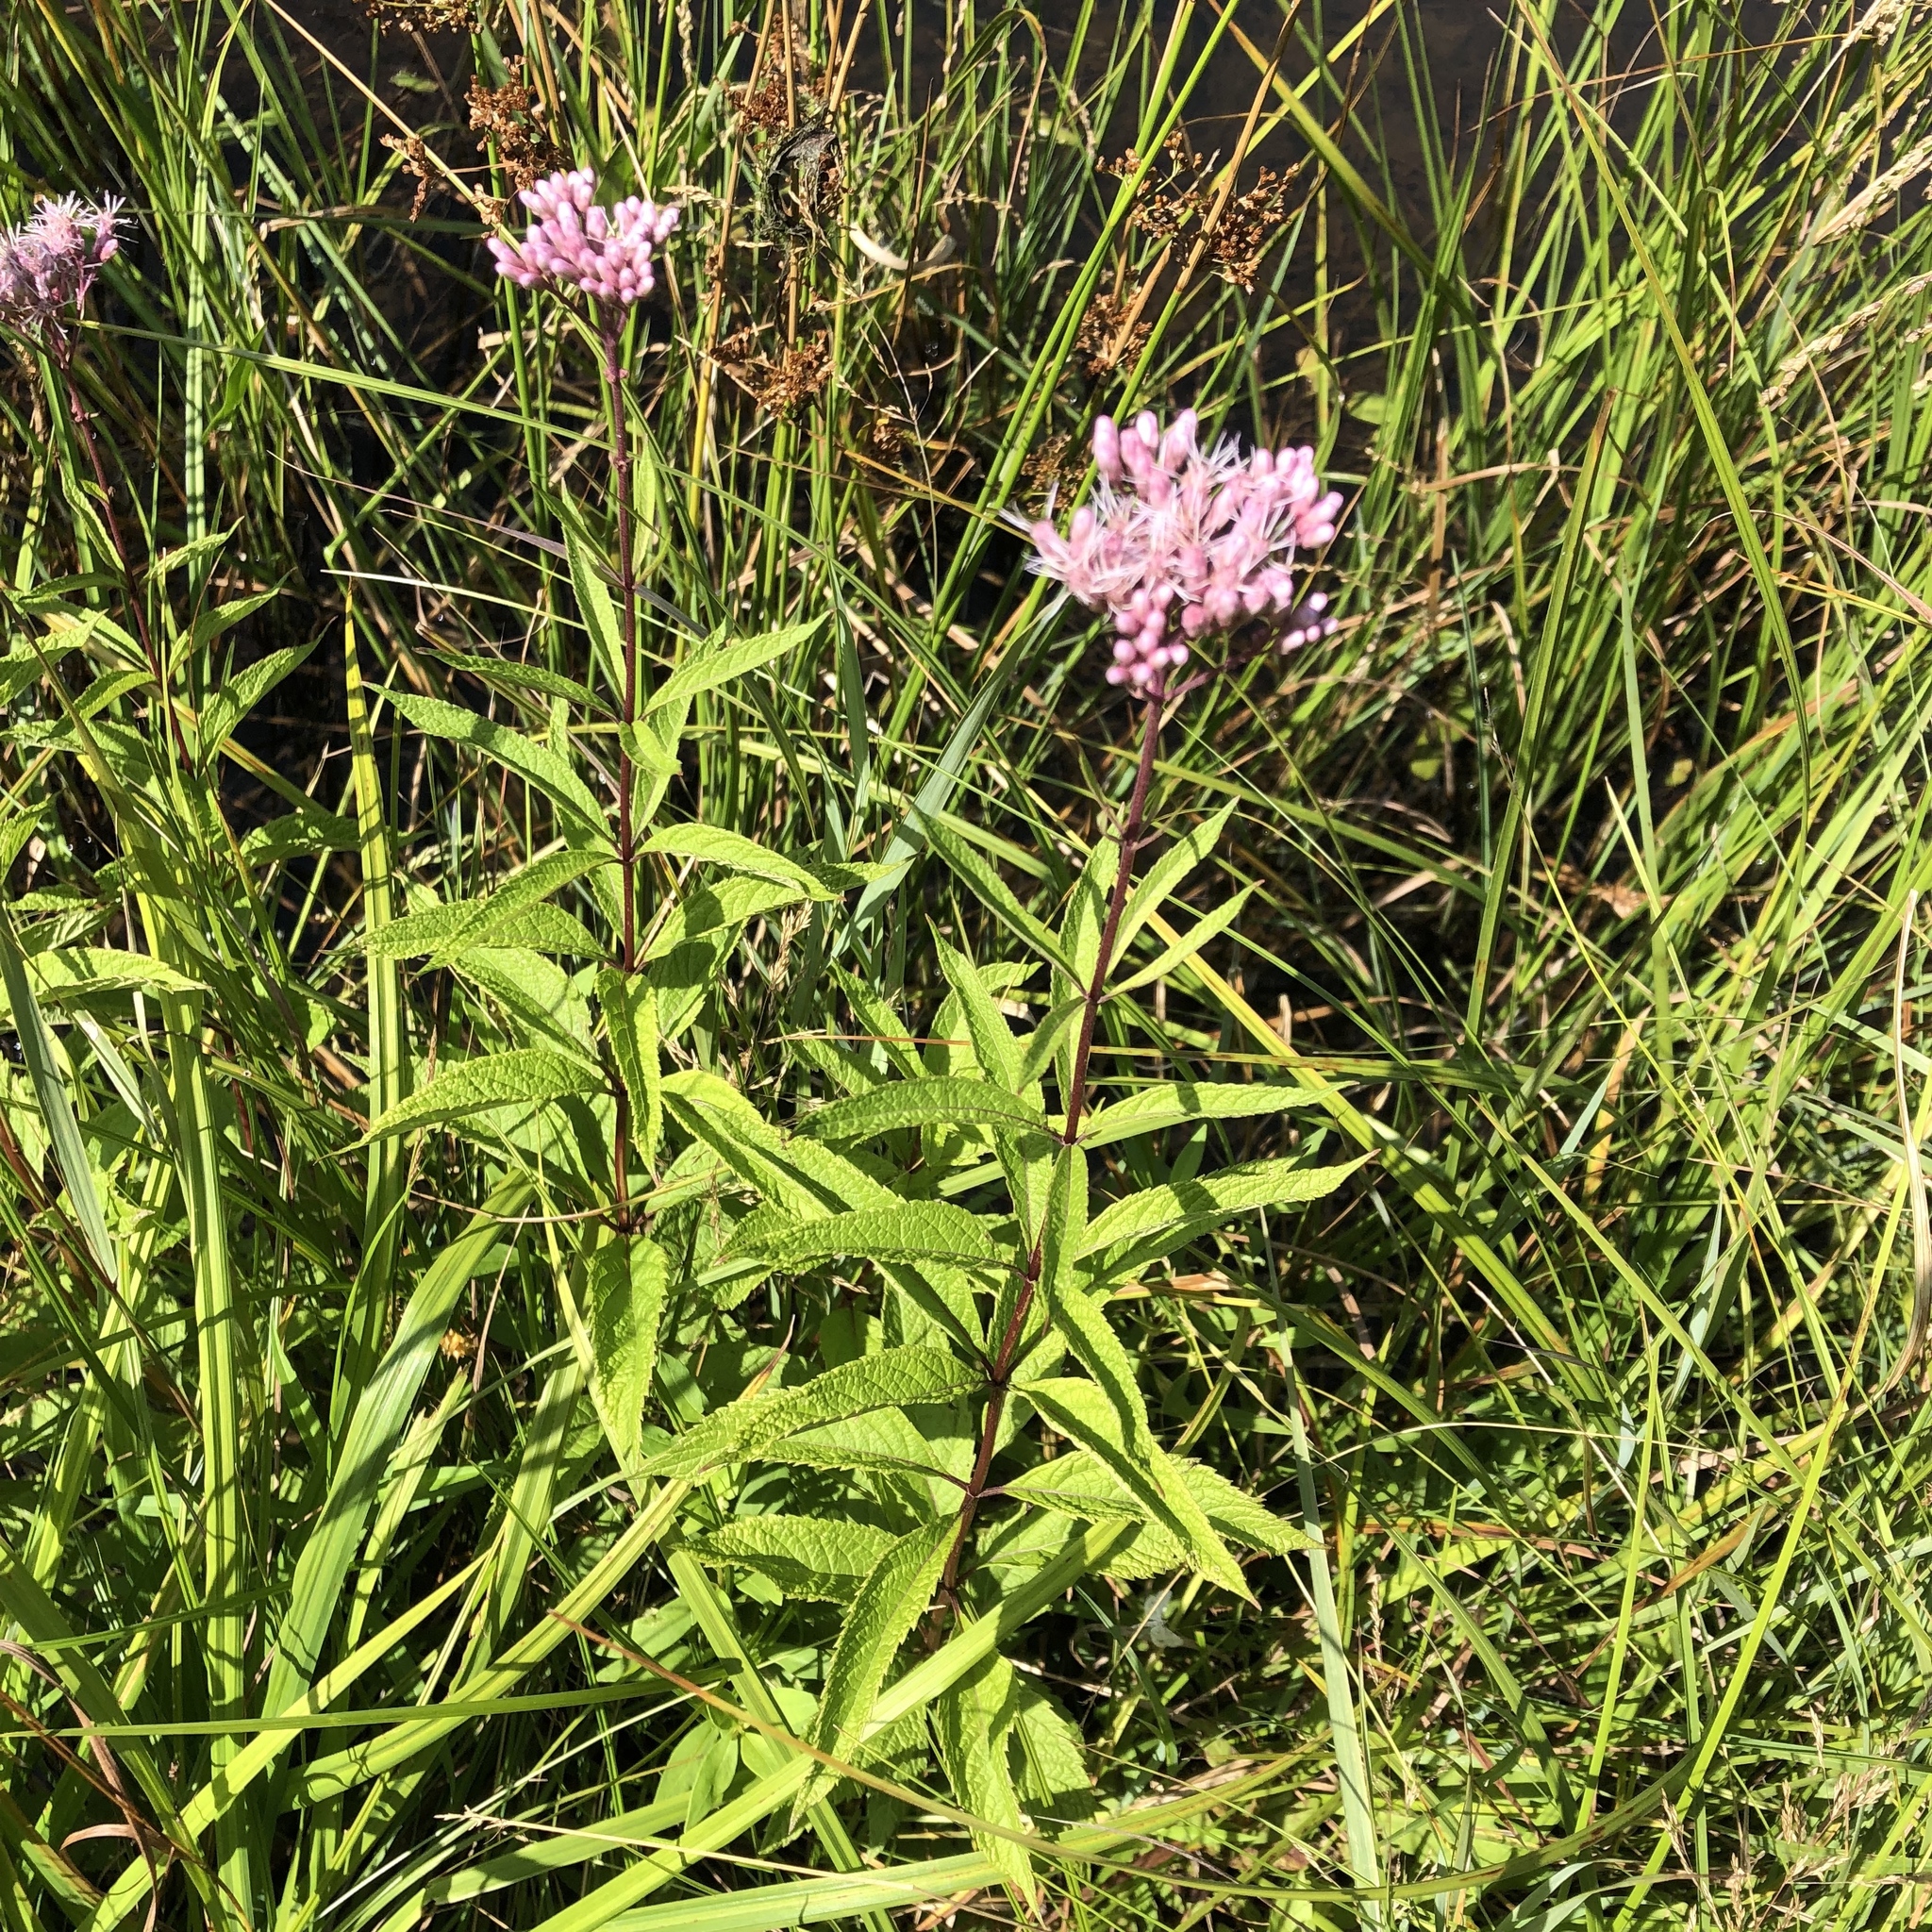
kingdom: Plantae
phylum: Tracheophyta
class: Magnoliopsida
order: Asterales
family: Asteraceae
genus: Eutrochium
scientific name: Eutrochium maculatum
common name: Spotted joe pye weed
